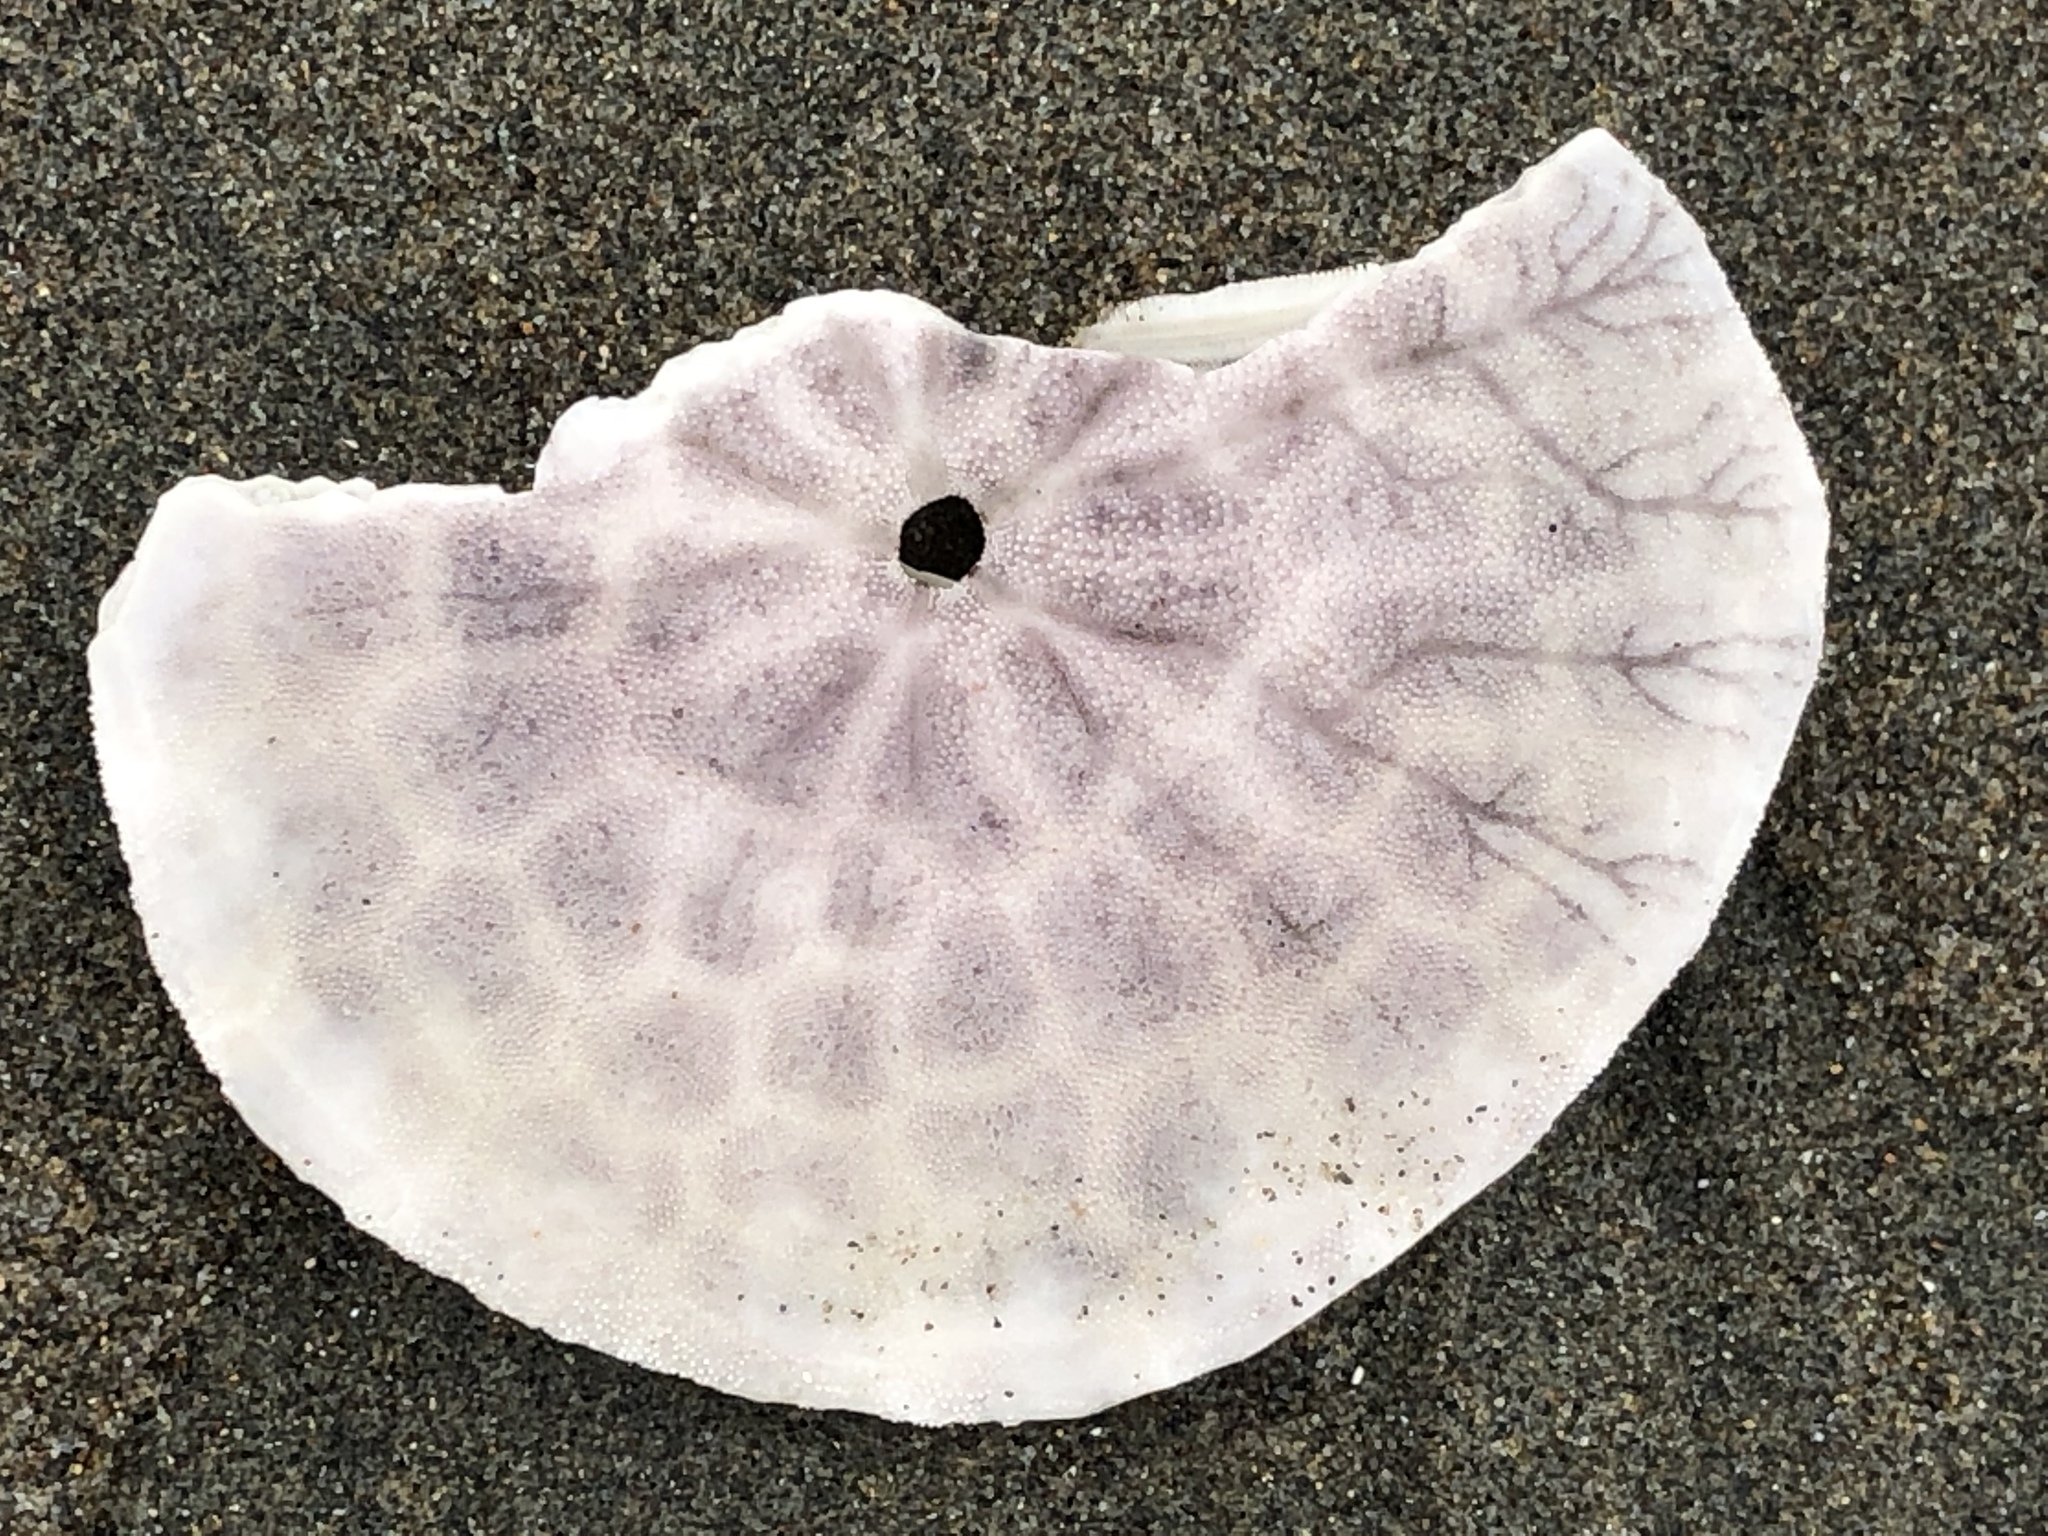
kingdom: Animalia
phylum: Echinodermata
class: Echinoidea
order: Echinolampadacea
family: Dendrasteridae
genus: Dendraster
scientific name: Dendraster excentricus
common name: Eccentric sand dollar sea urchin
